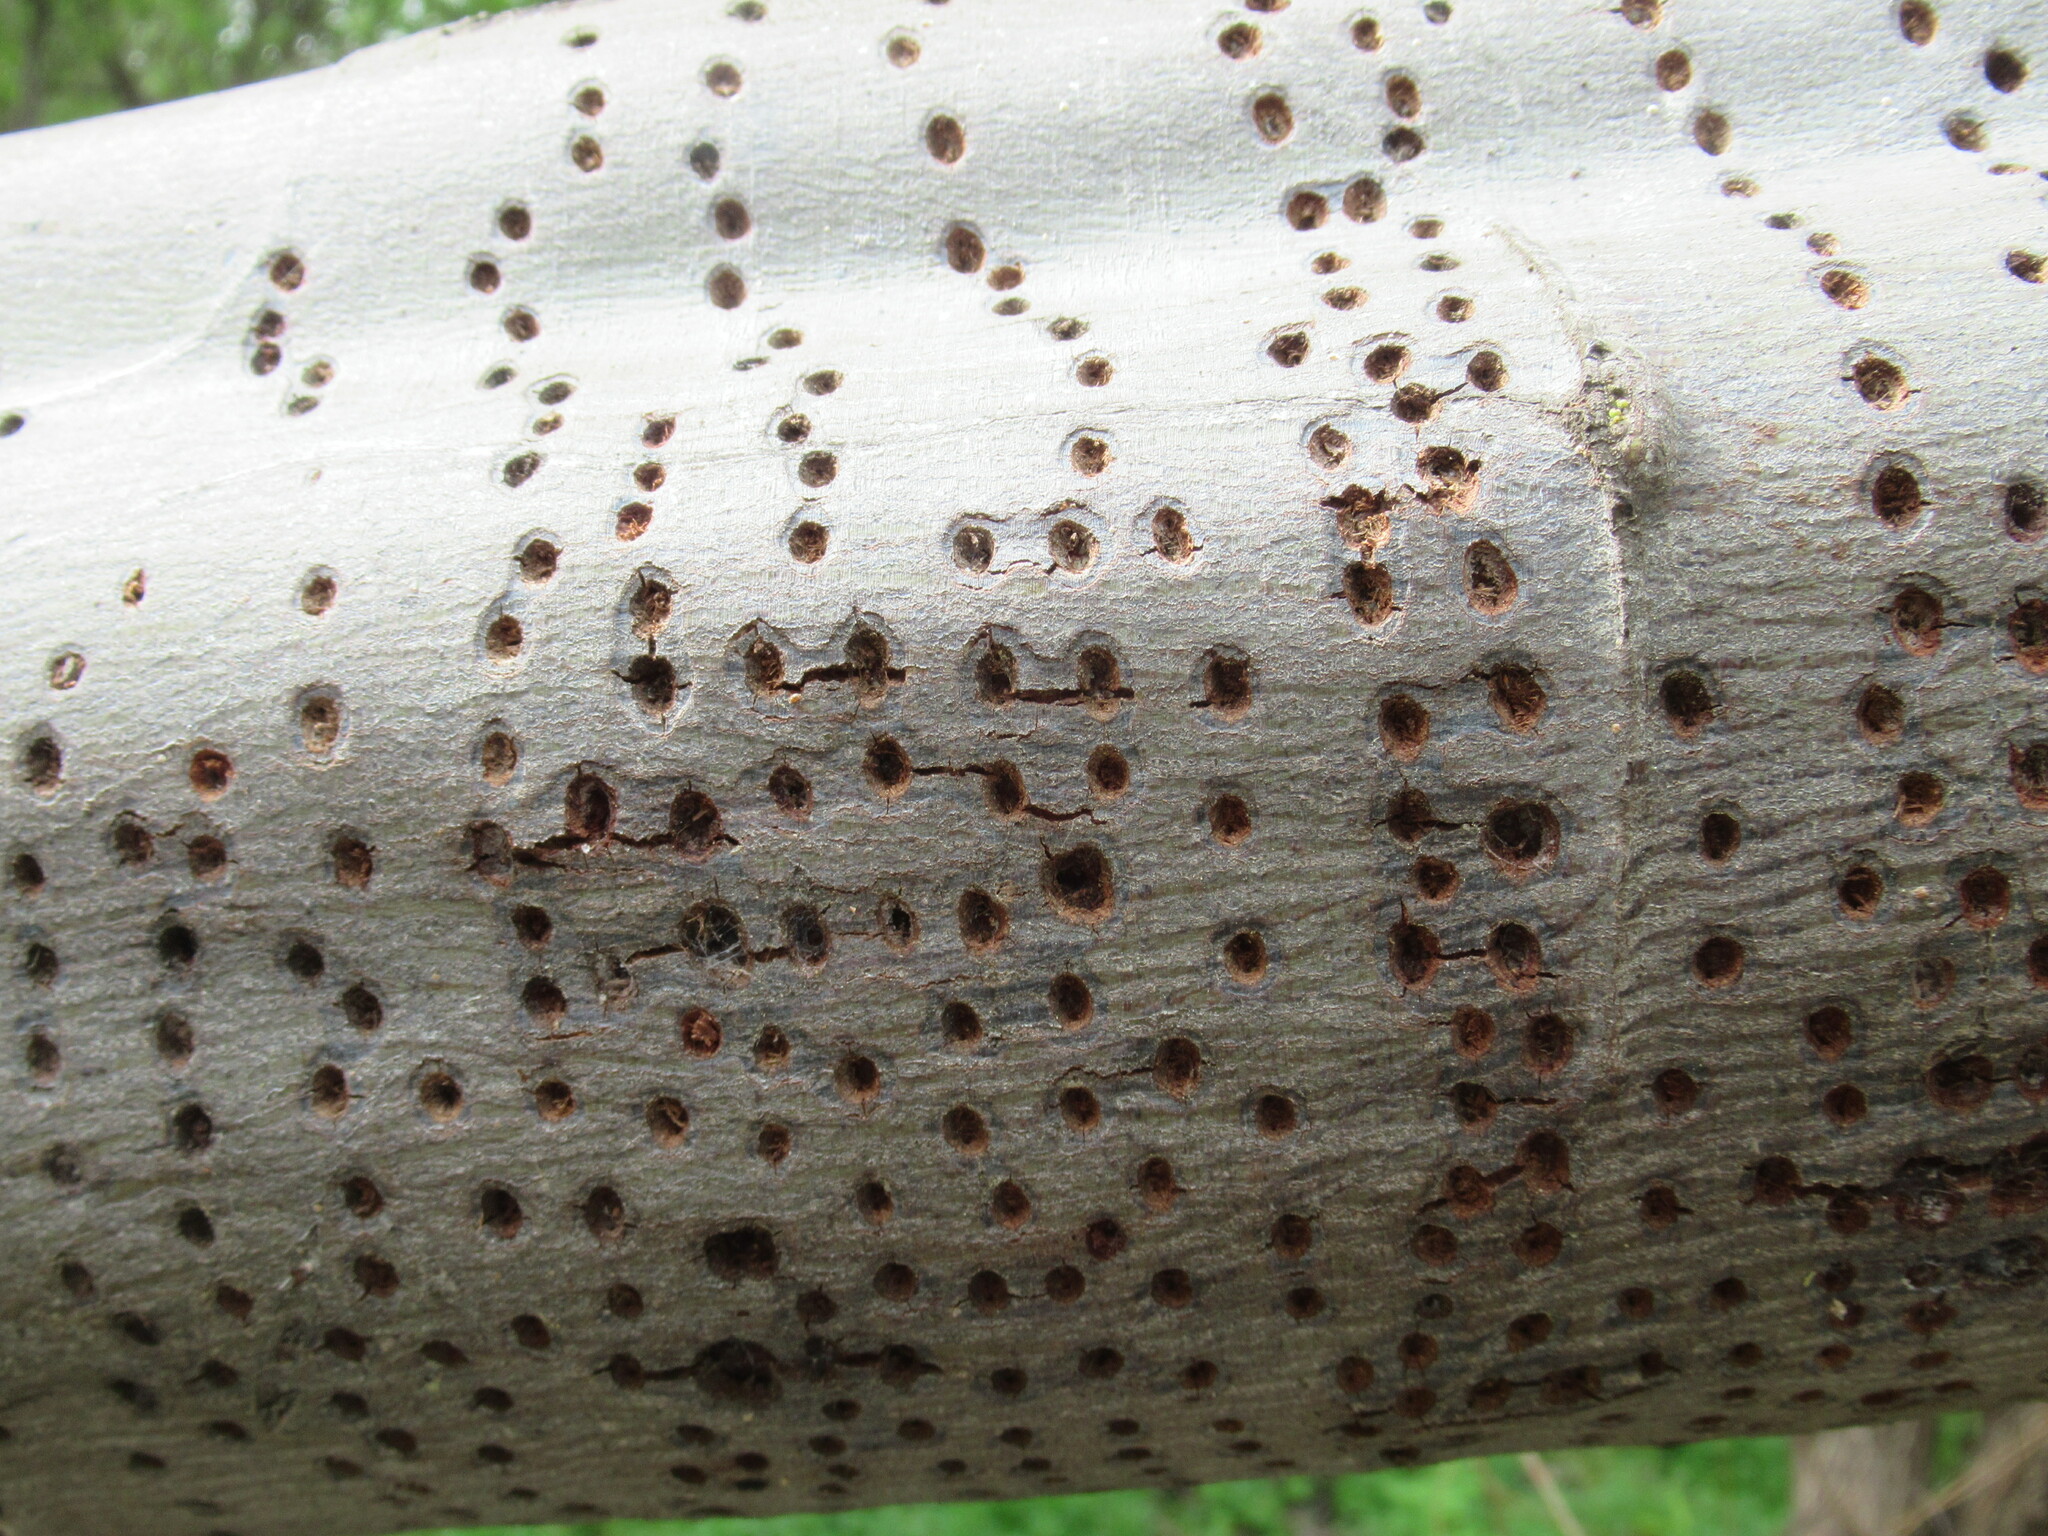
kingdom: Animalia
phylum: Chordata
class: Aves
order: Piciformes
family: Picidae
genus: Sphyrapicus
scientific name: Sphyrapicus
